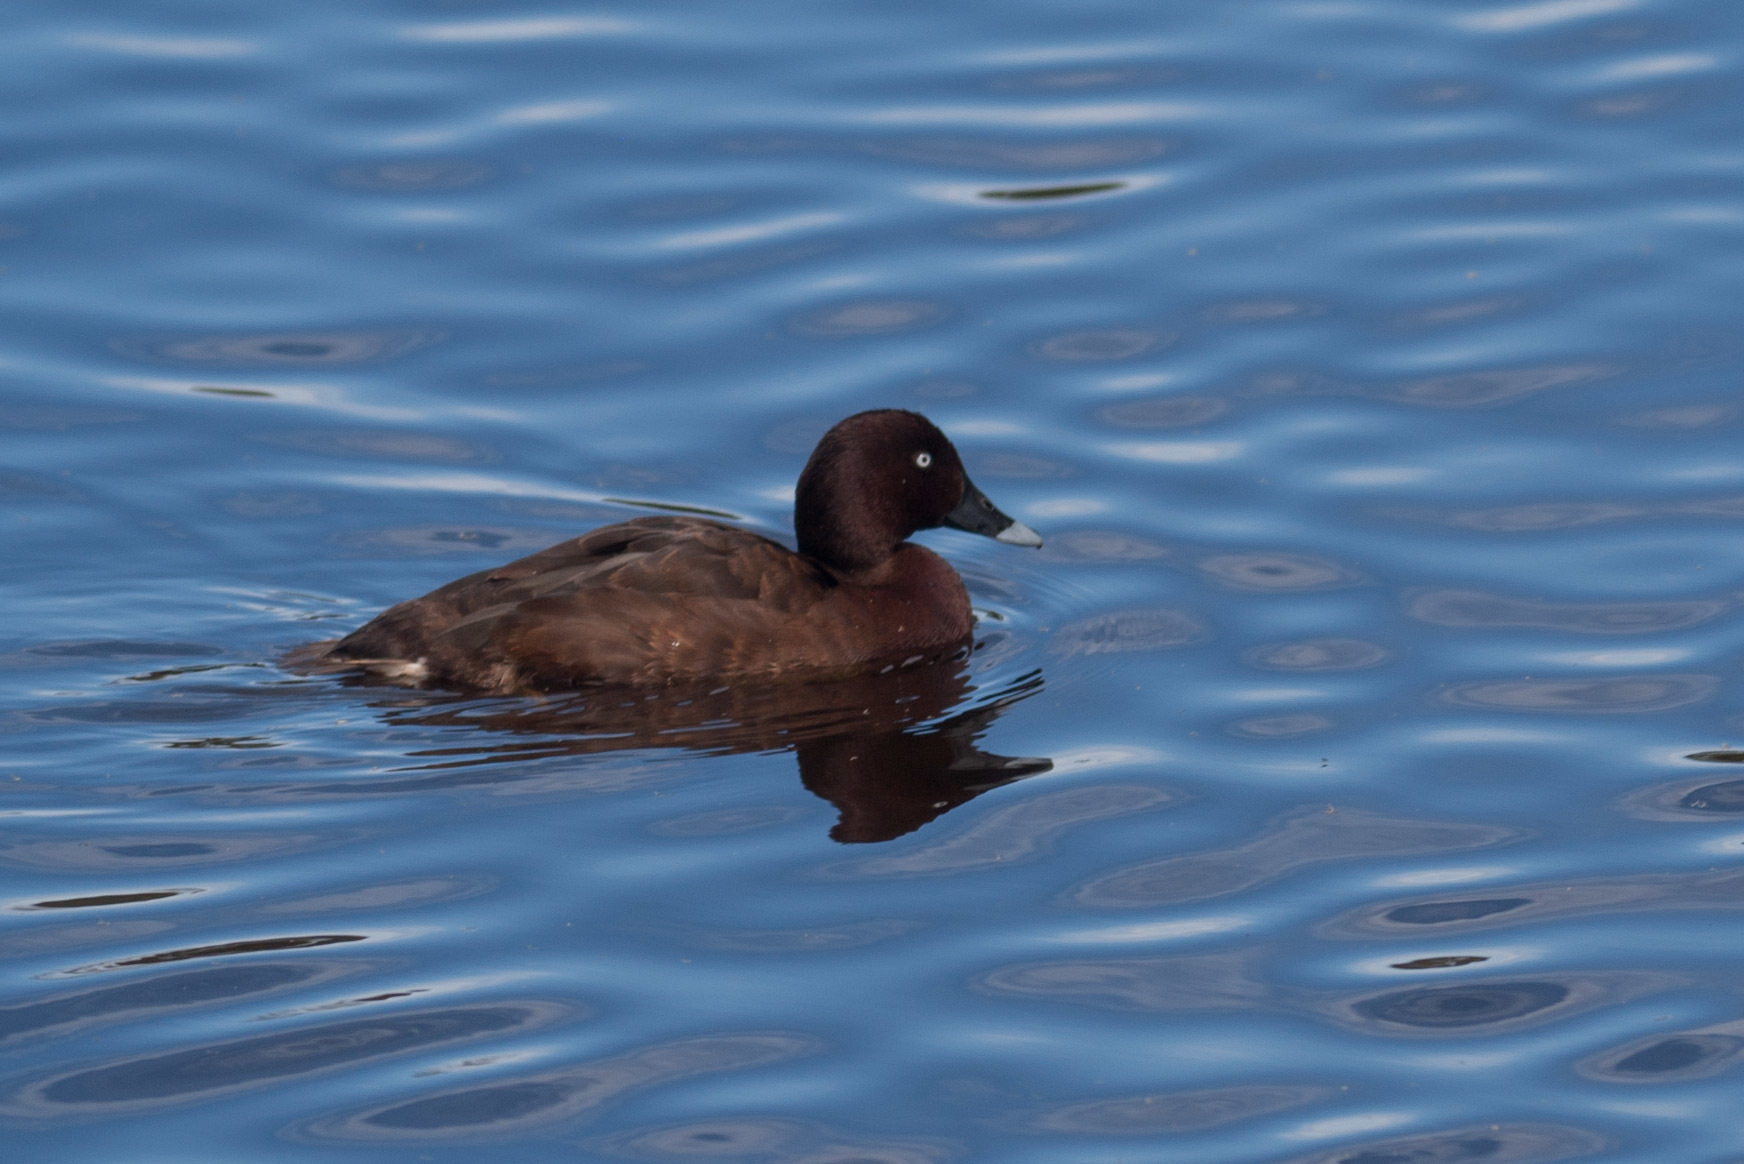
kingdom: Animalia
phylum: Chordata
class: Aves
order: Anseriformes
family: Anatidae
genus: Aythya
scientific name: Aythya australis
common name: Hardhead
